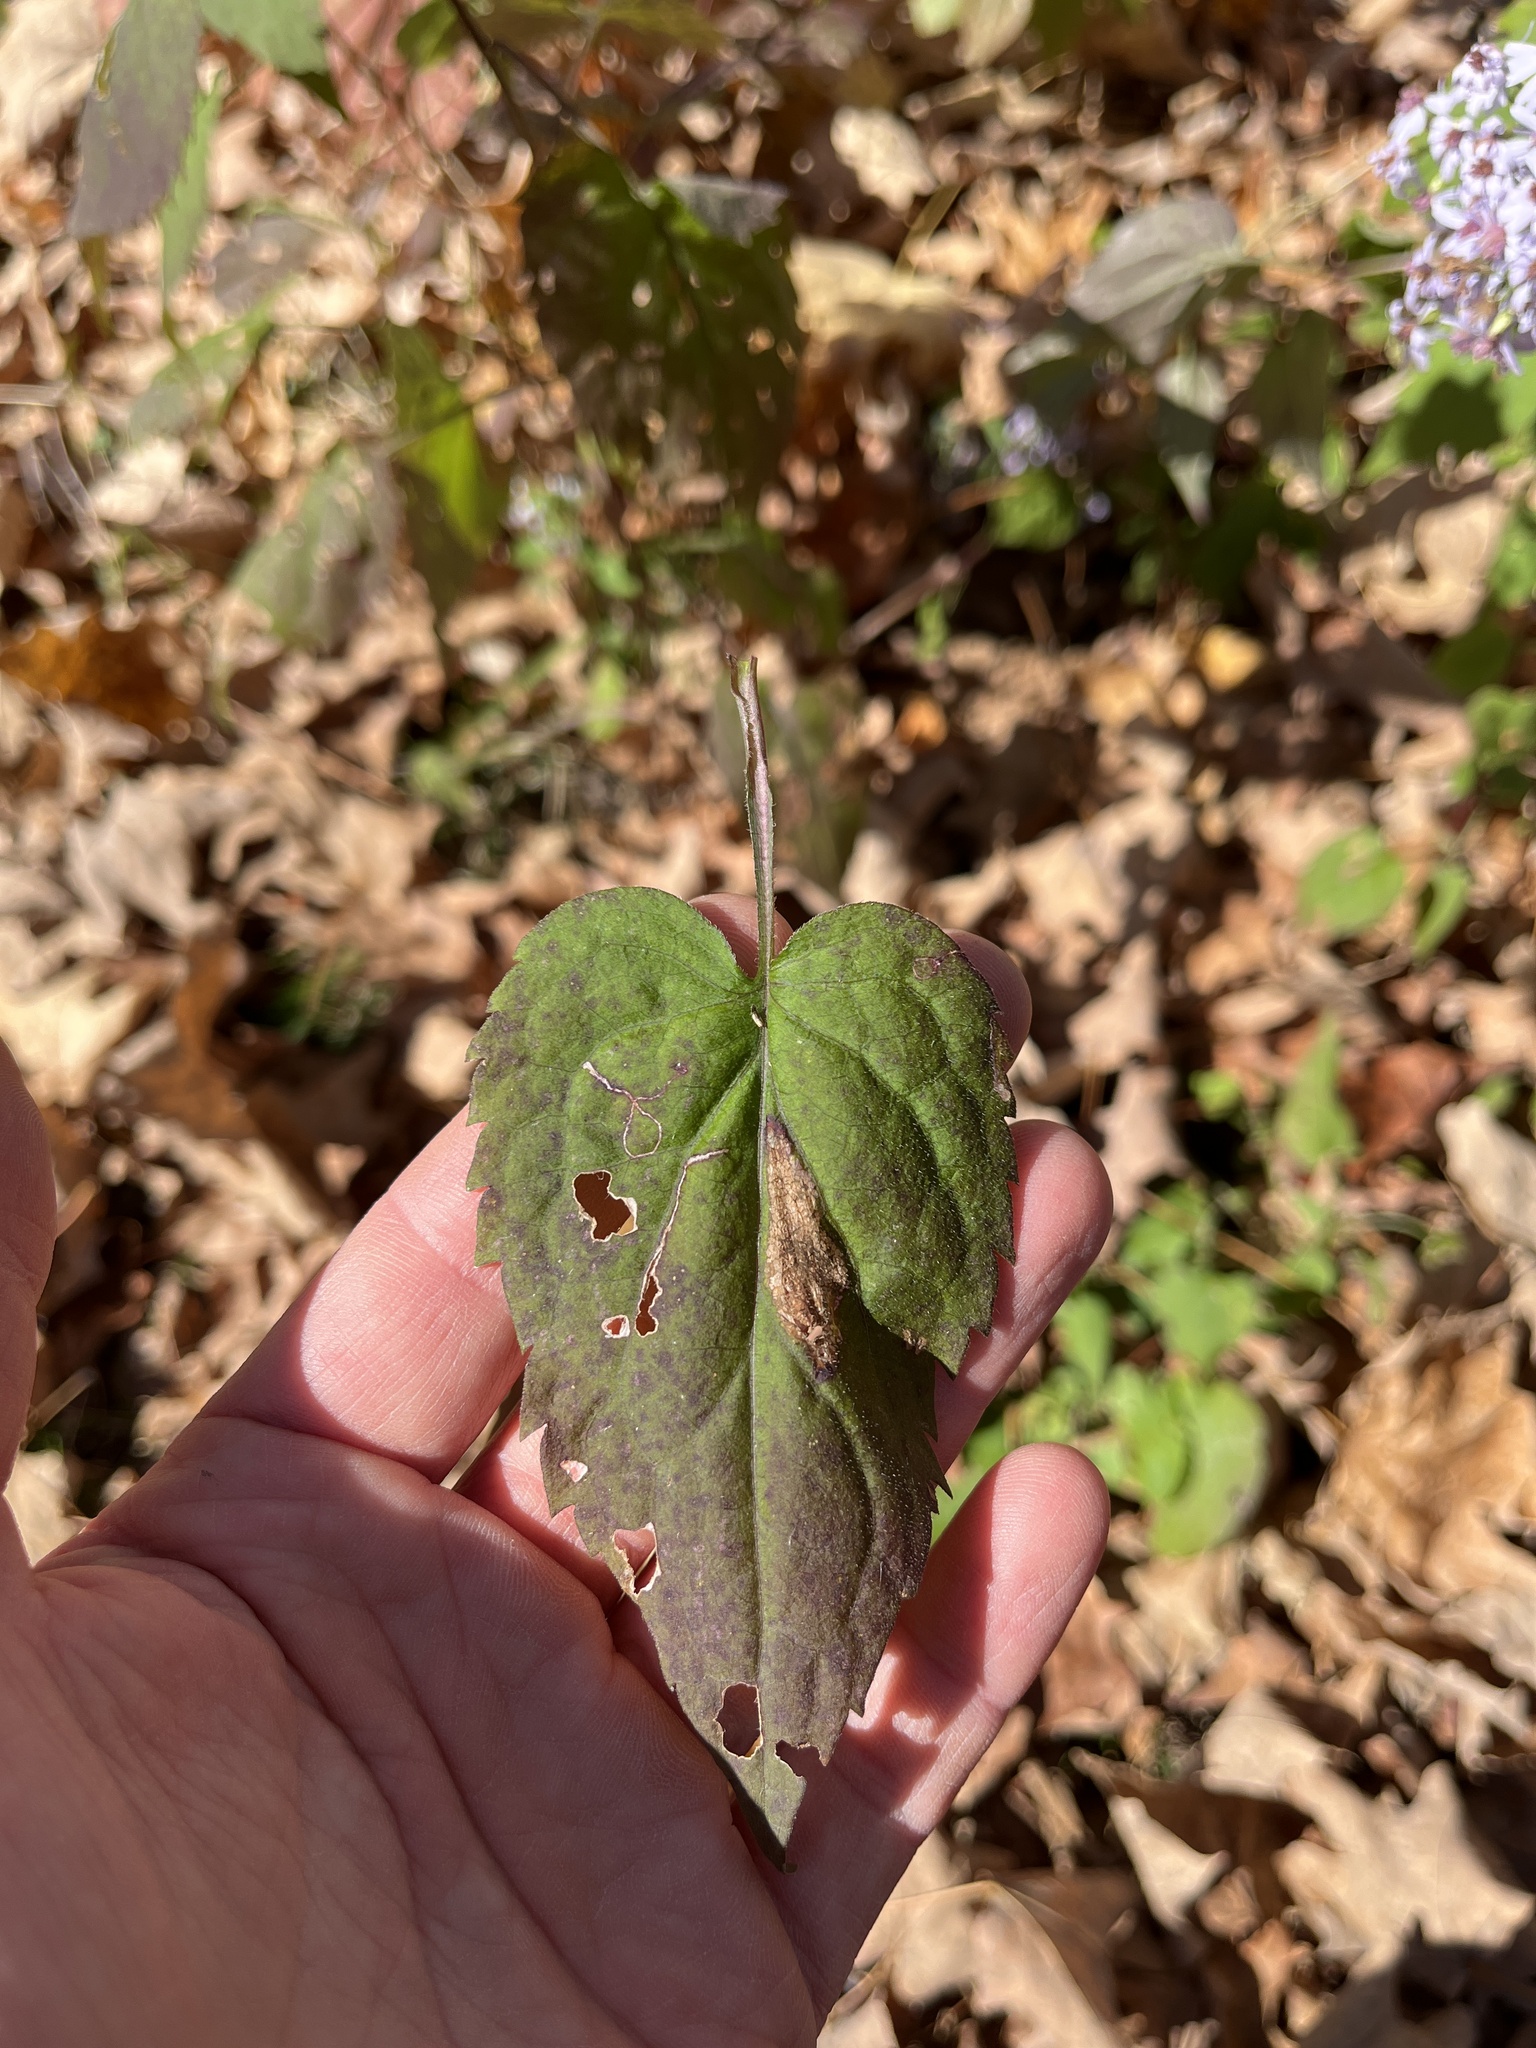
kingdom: Plantae
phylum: Tracheophyta
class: Magnoliopsida
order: Asterales
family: Asteraceae
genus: Symphyotrichum
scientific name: Symphyotrichum cordifolium
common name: Beeweed
